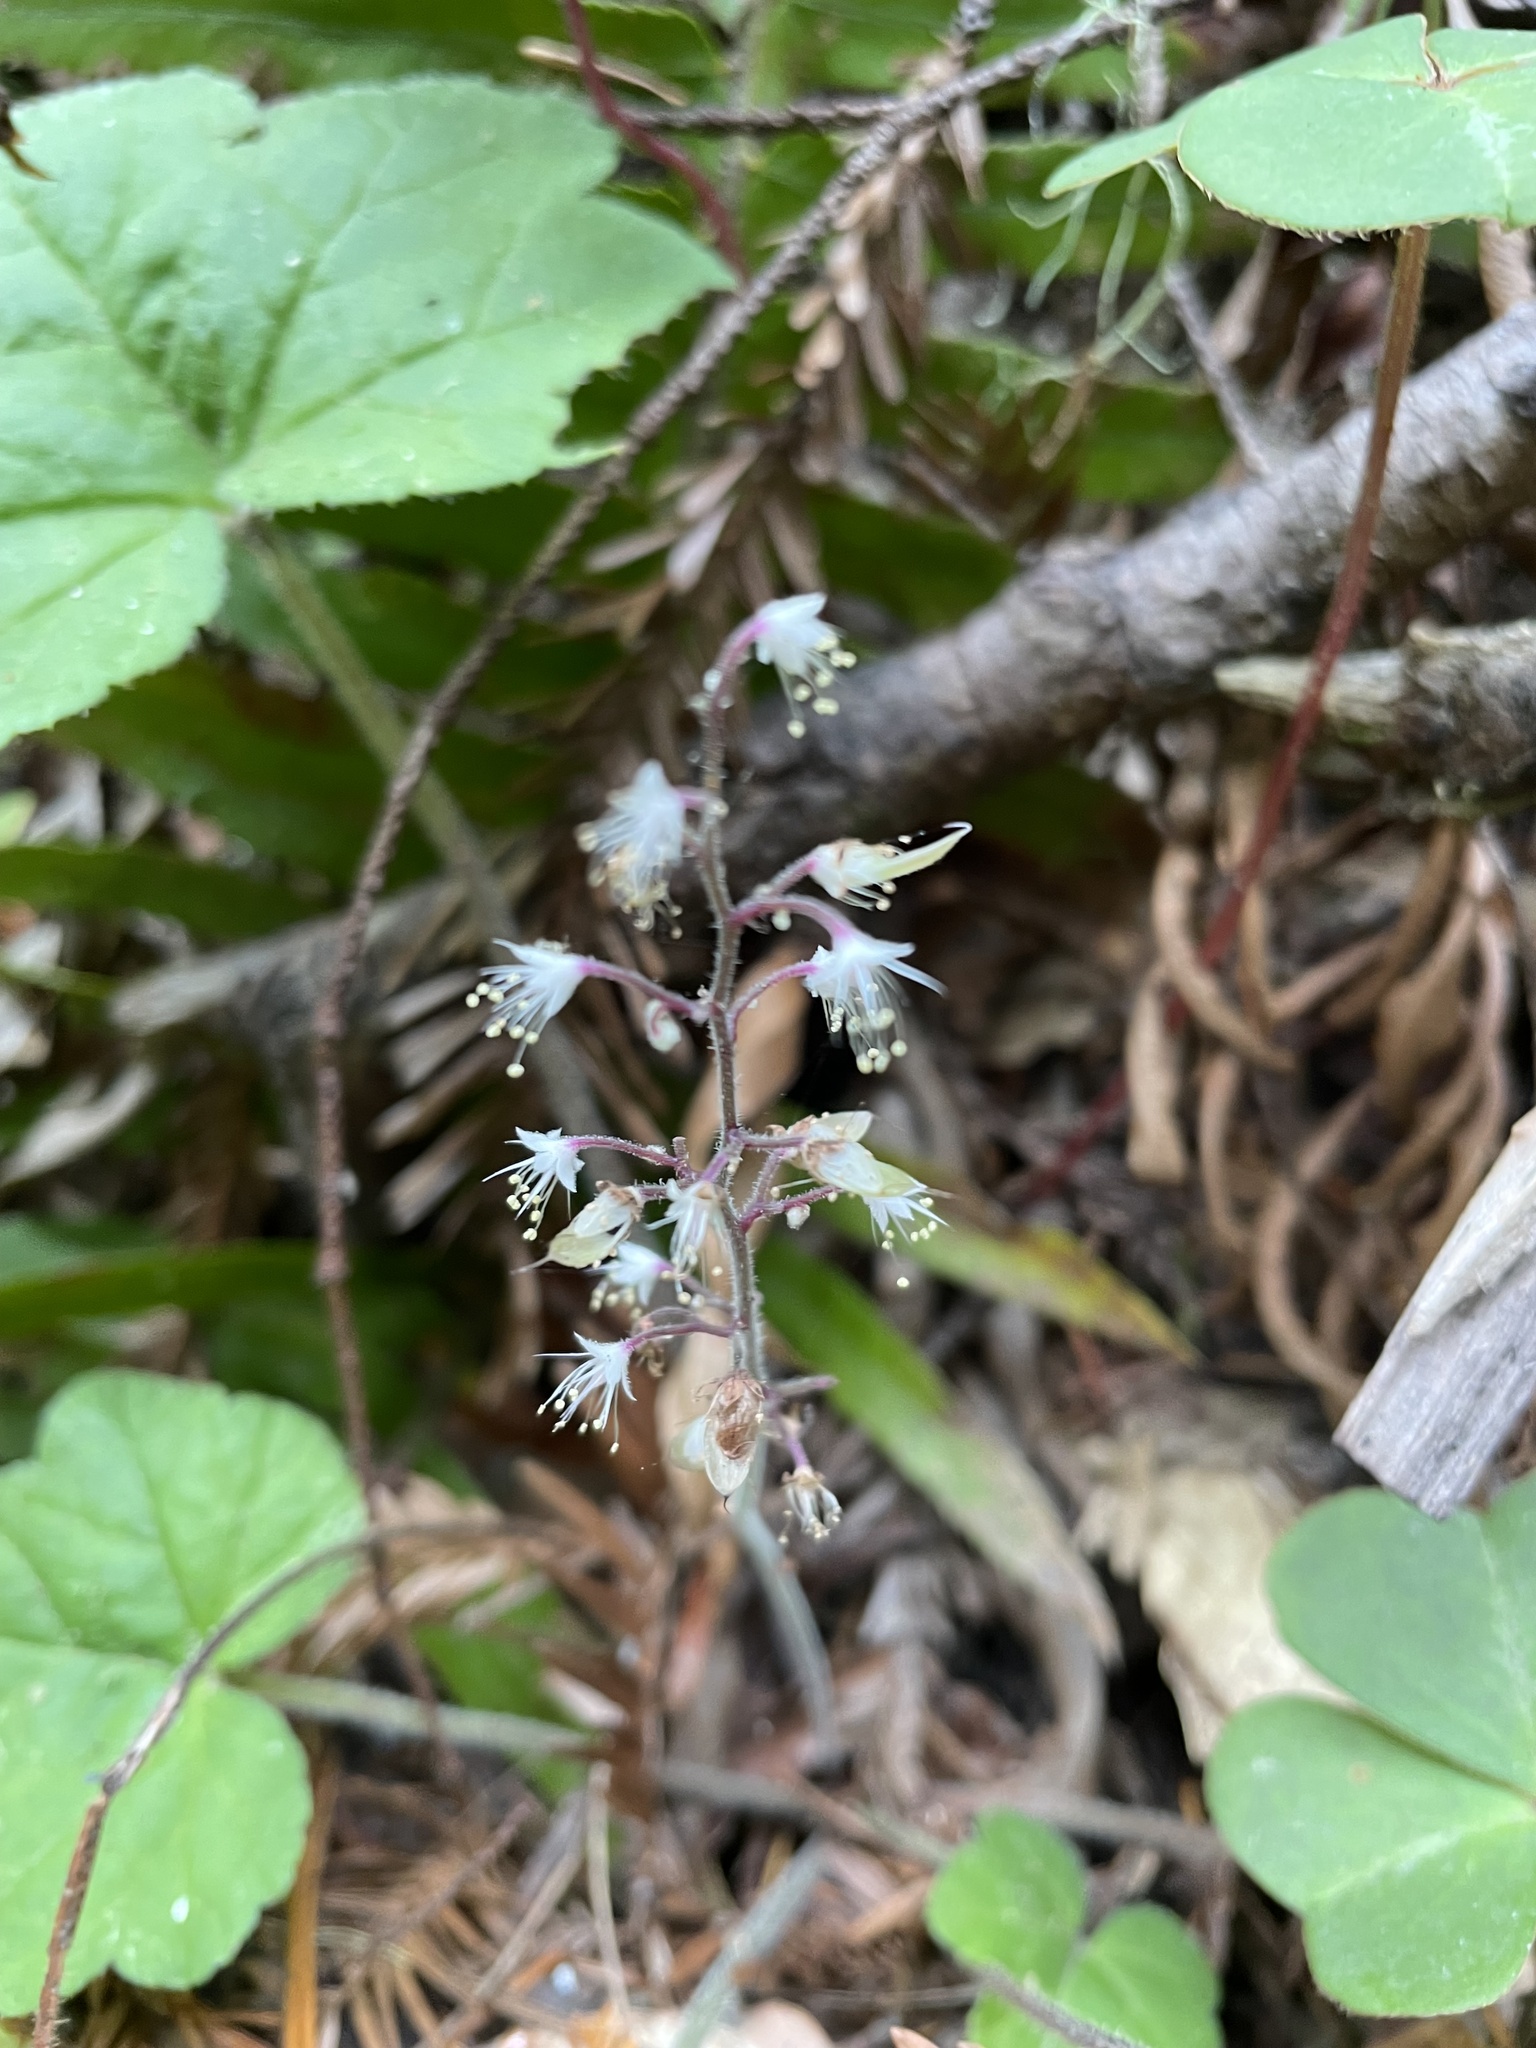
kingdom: Plantae
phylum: Tracheophyta
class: Magnoliopsida
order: Saxifragales
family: Saxifragaceae
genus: Tiarella
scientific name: Tiarella trifoliata
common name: Sugar-scoop
